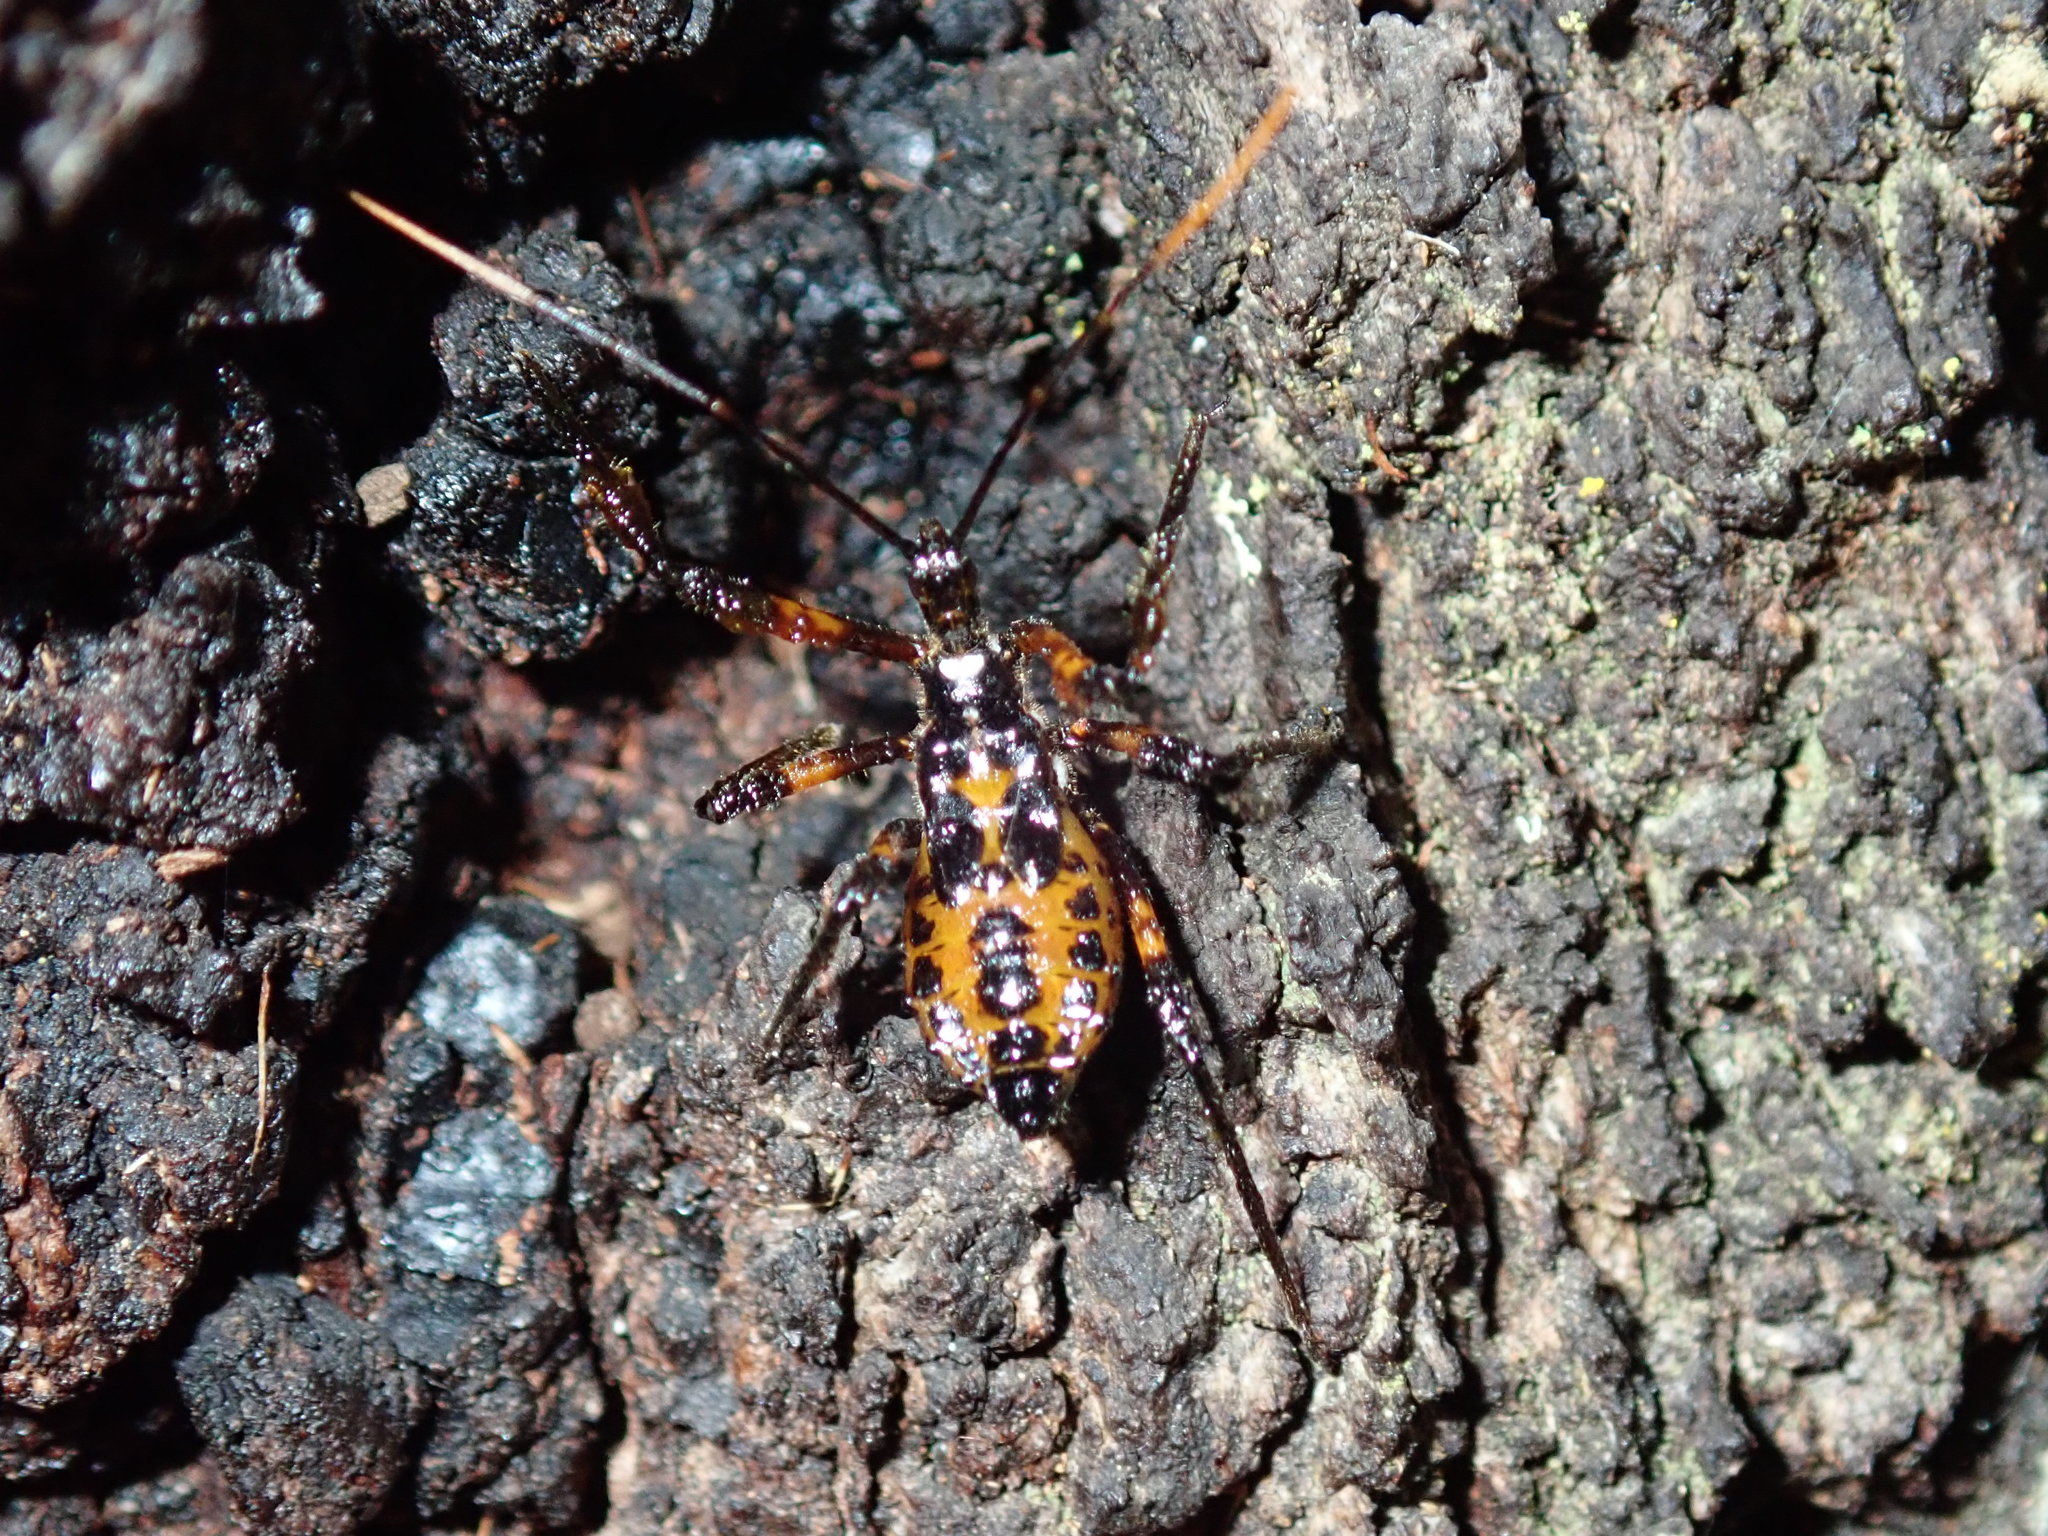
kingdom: Animalia
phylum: Arthropoda
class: Insecta
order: Hemiptera
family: Reduviidae
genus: Austrovelinus
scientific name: Austrovelinus varius
